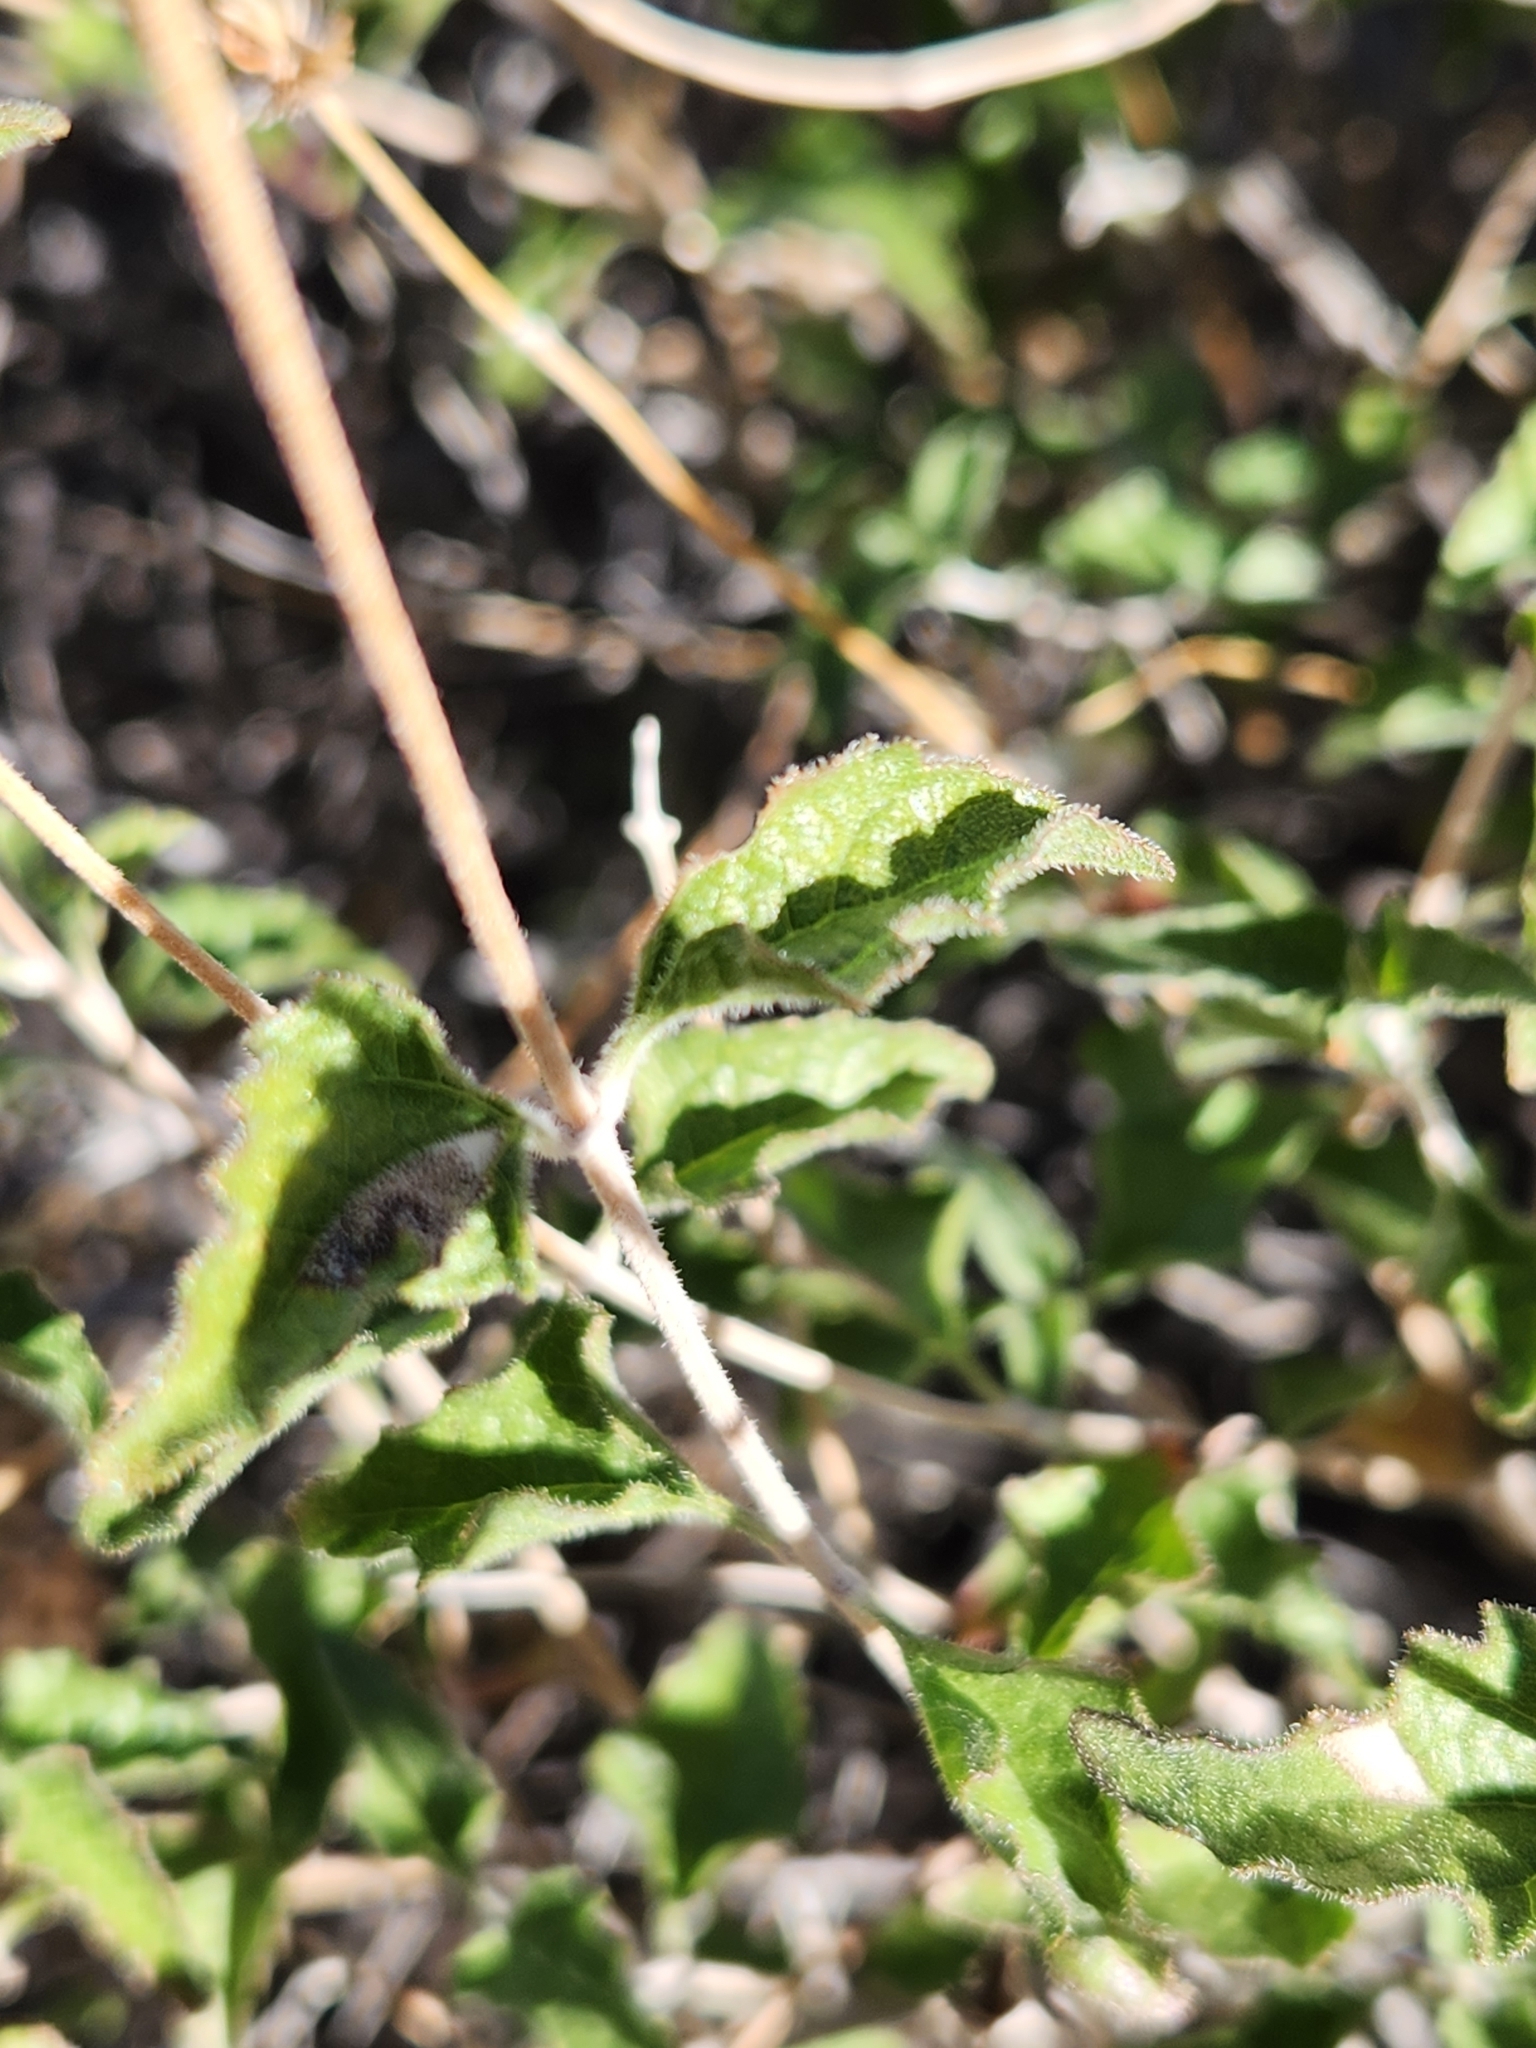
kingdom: Plantae
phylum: Tracheophyta
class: Magnoliopsida
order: Asterales
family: Asteraceae
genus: Bahiopsis
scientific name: Bahiopsis parishii
